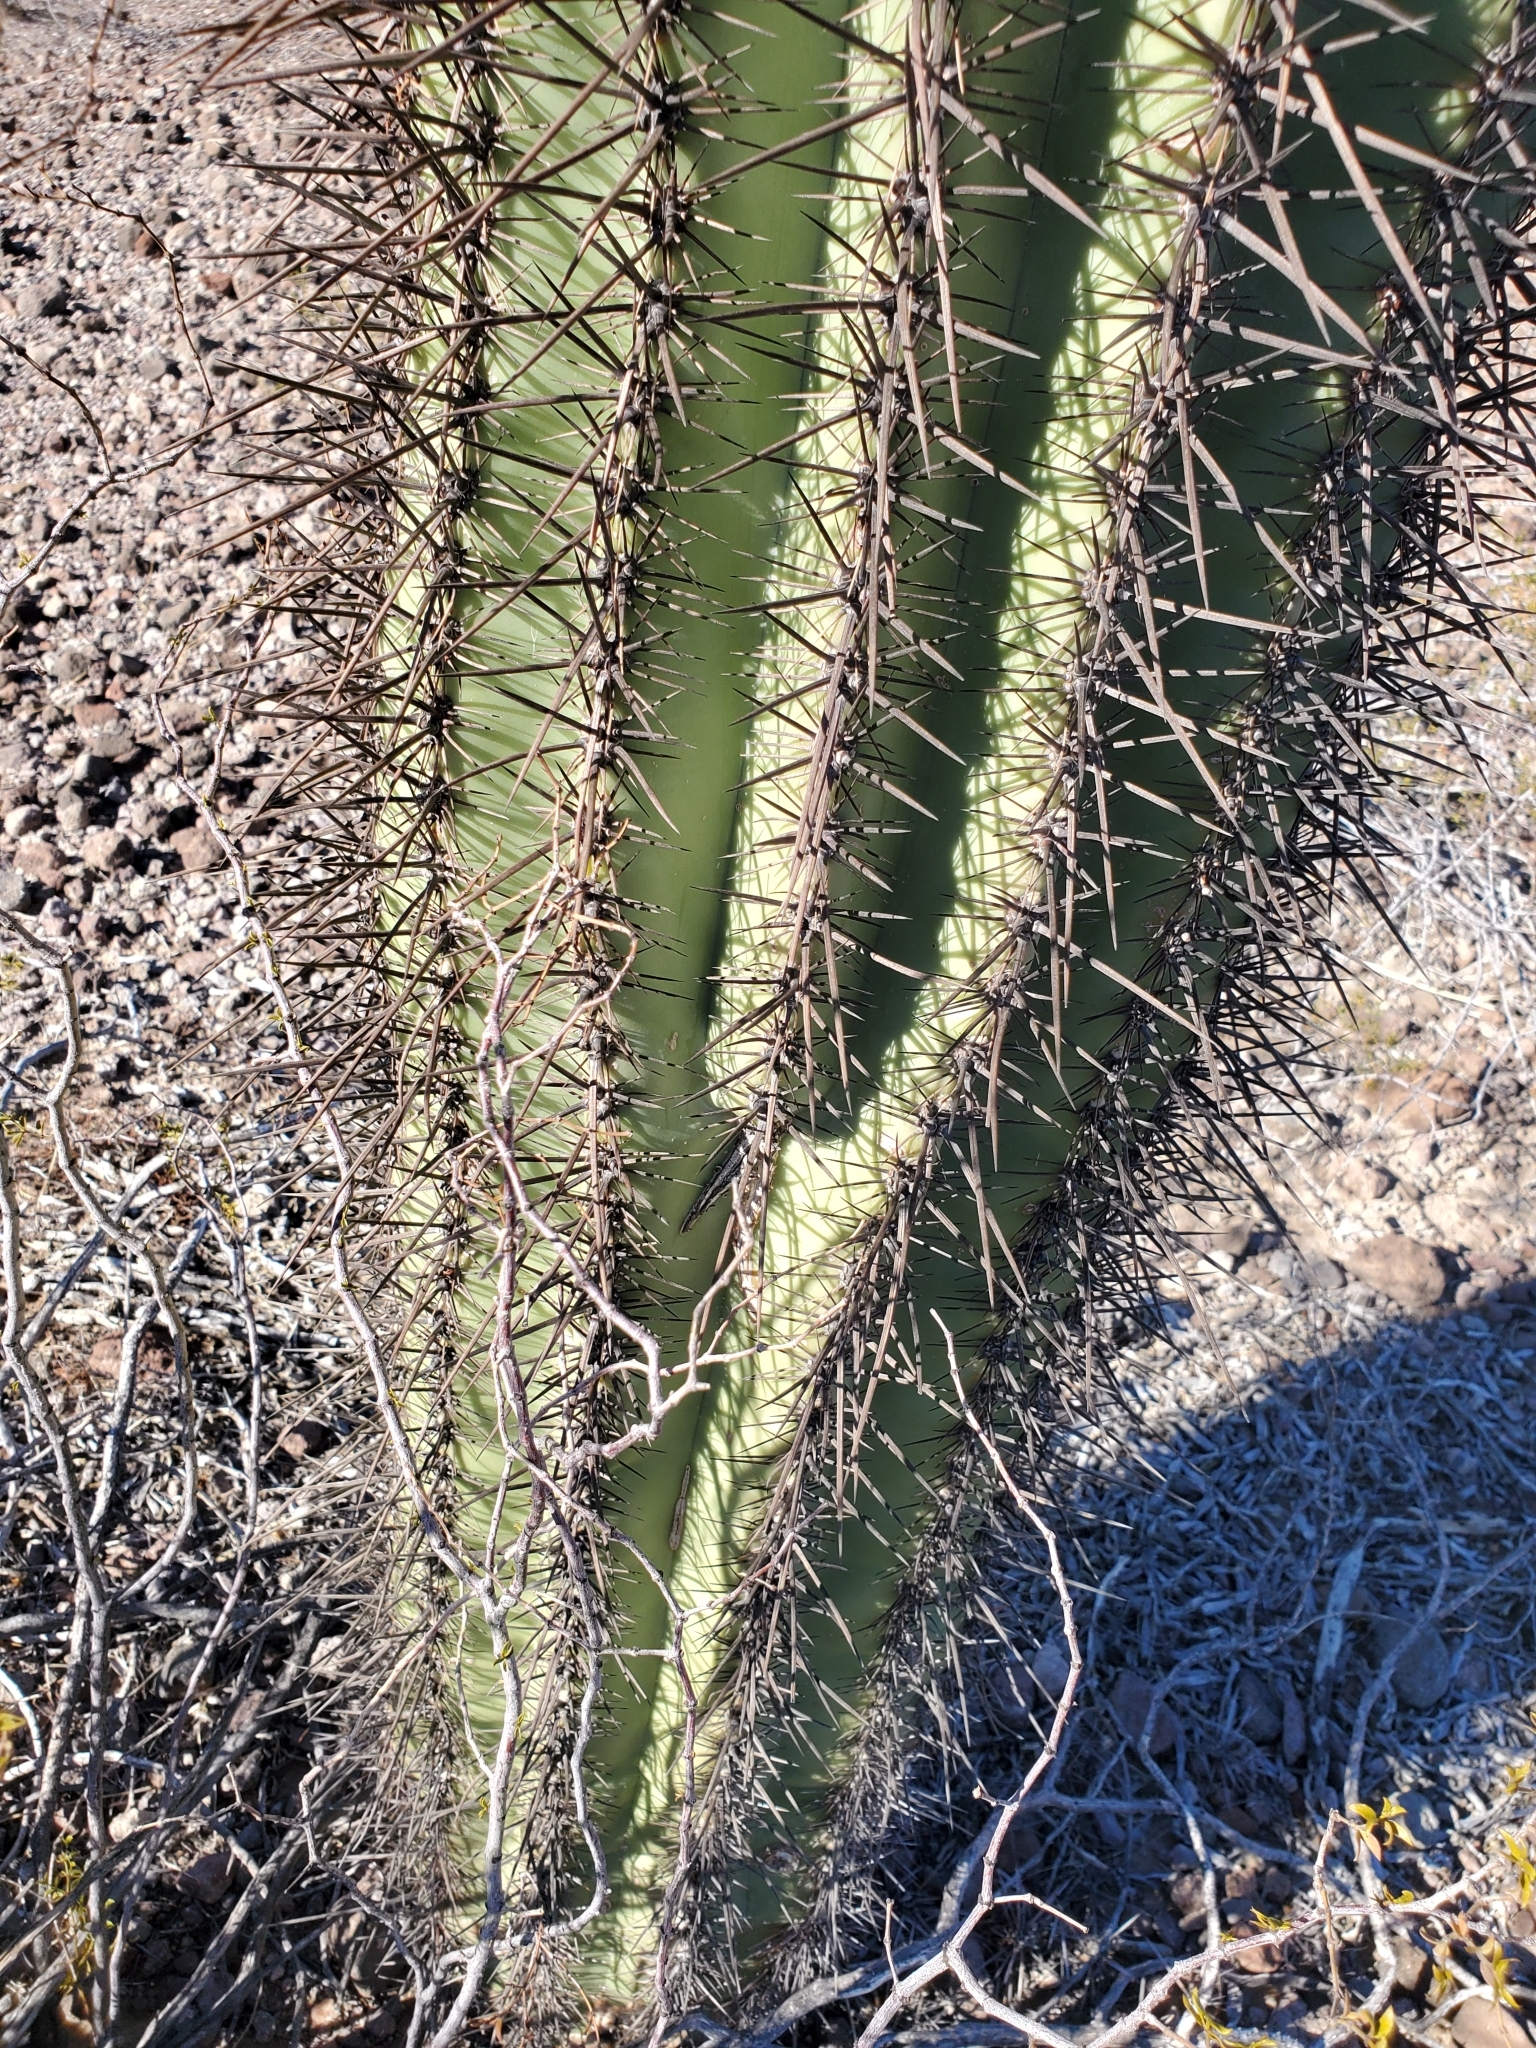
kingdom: Plantae
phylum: Tracheophyta
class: Magnoliopsida
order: Caryophyllales
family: Cactaceae
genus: Carnegiea
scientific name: Carnegiea gigantea
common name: Saguaro
